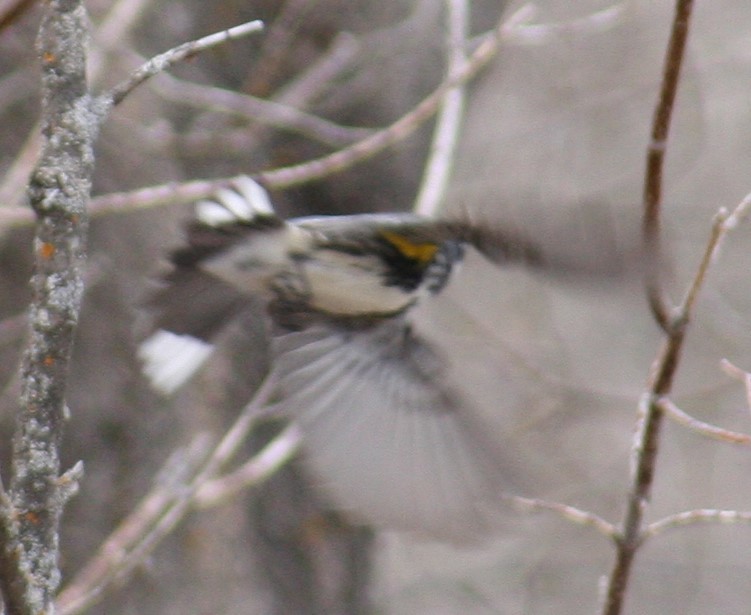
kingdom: Animalia
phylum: Chordata
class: Aves
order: Passeriformes
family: Parulidae
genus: Setophaga
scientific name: Setophaga coronata
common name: Myrtle warbler
